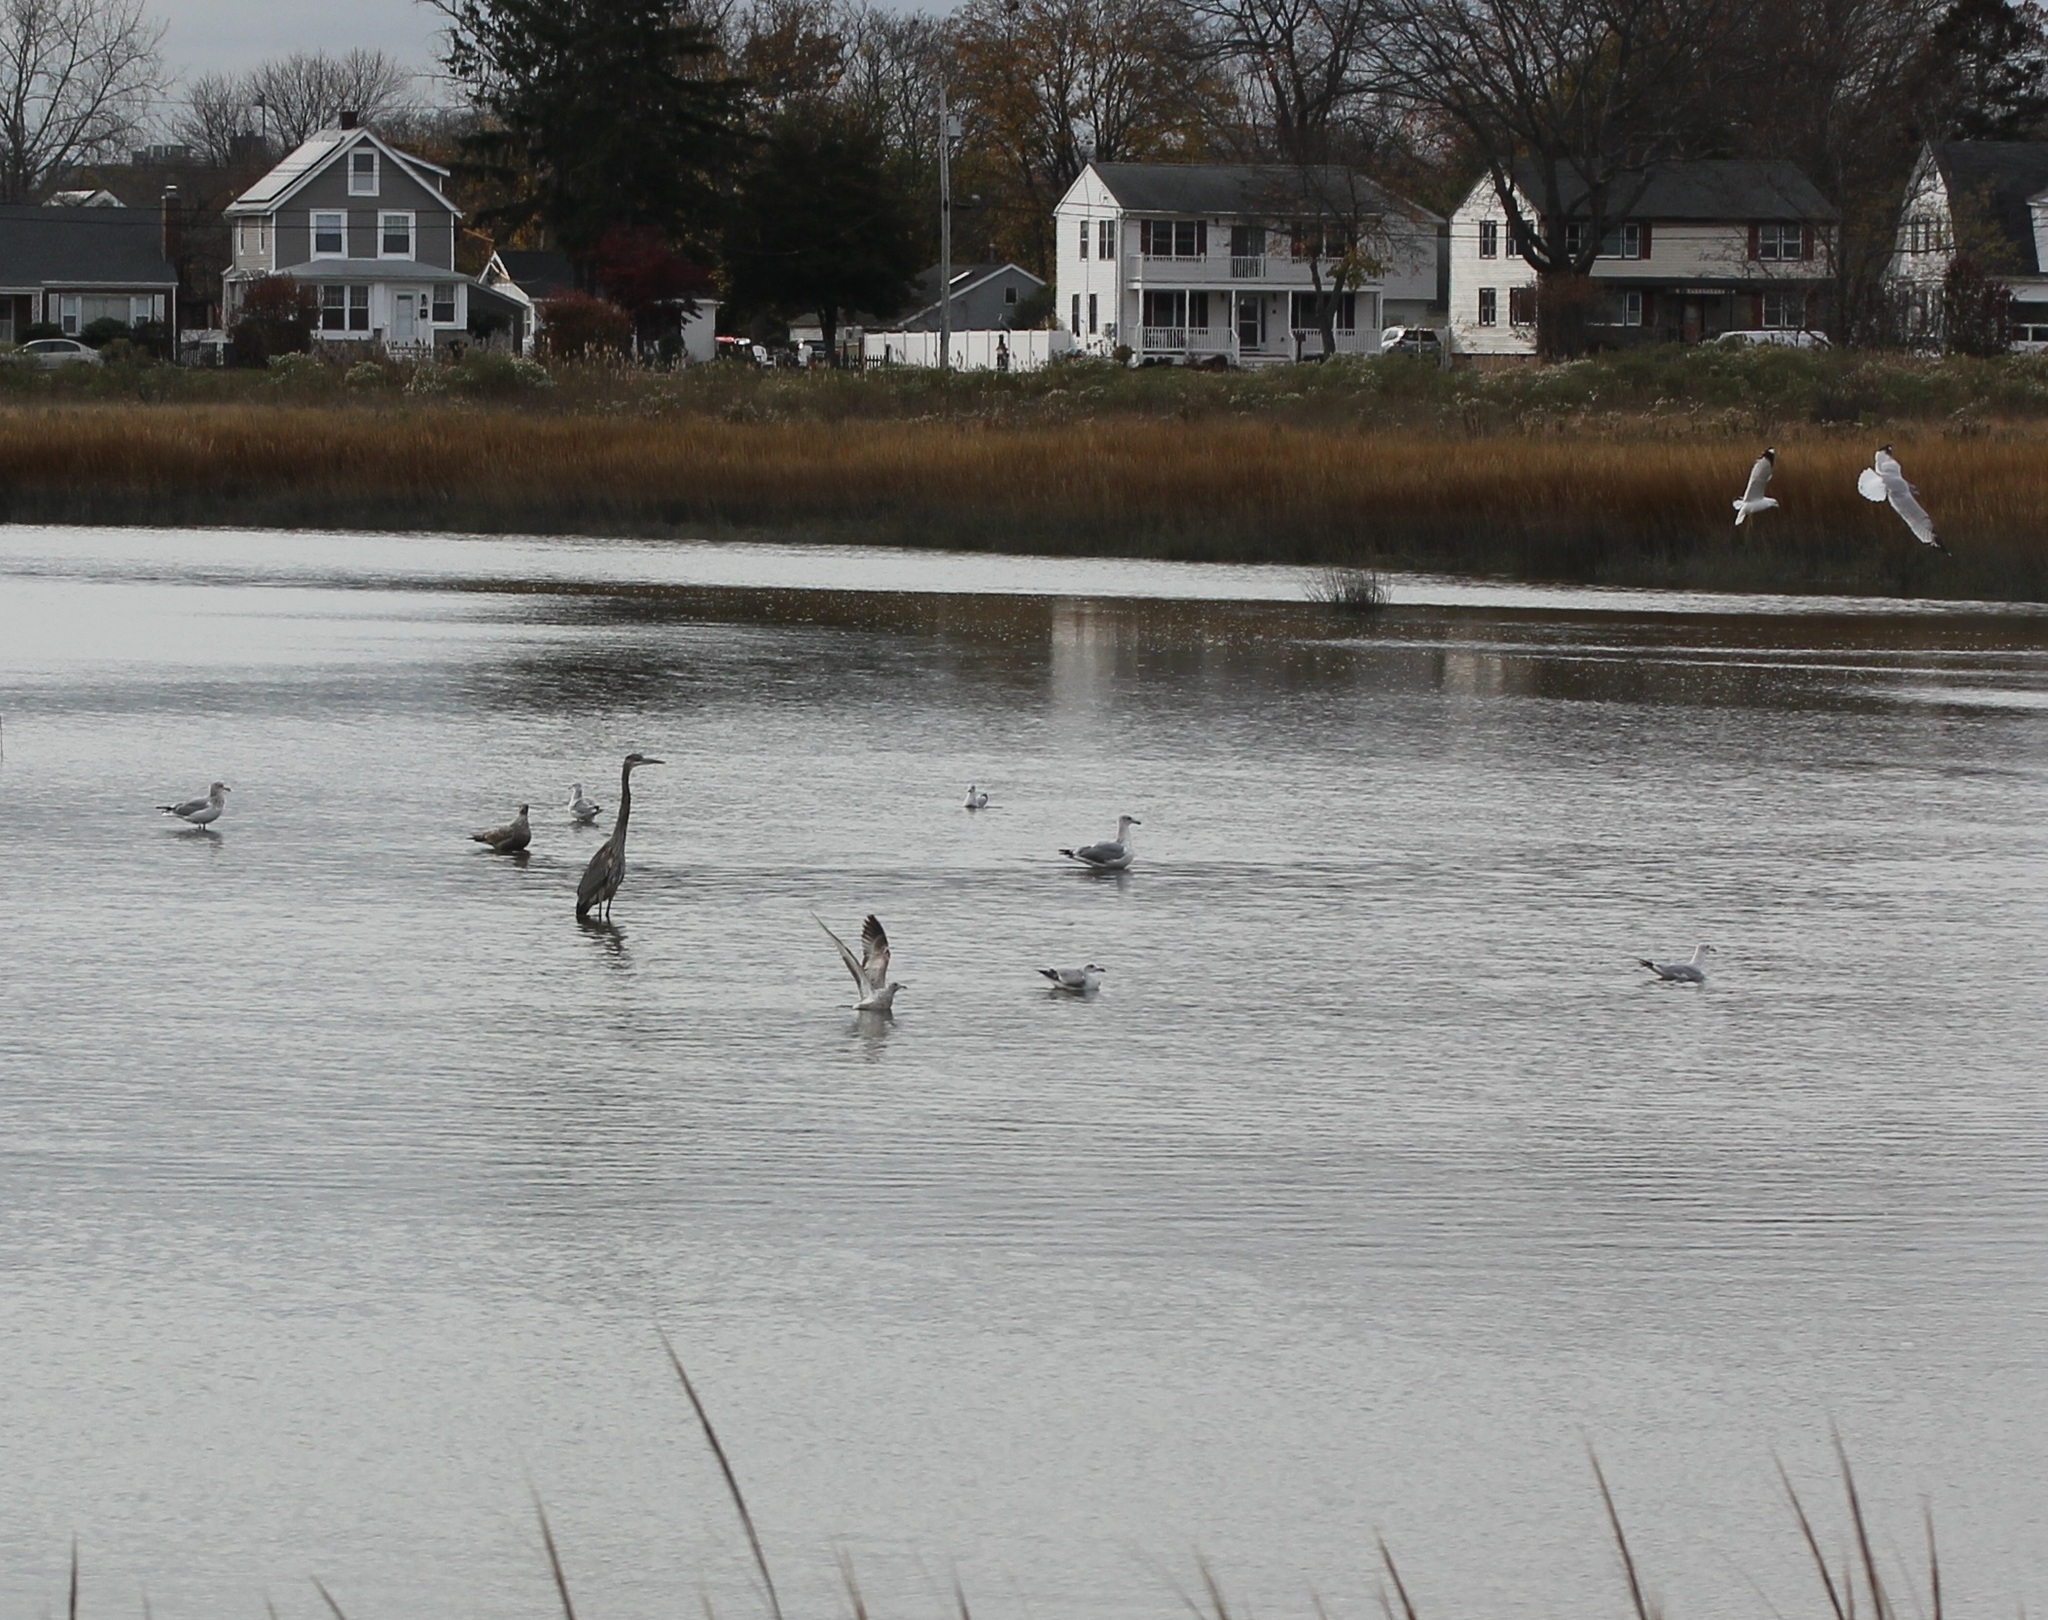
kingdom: Animalia
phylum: Chordata
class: Aves
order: Charadriiformes
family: Laridae
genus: Larus
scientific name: Larus argentatus
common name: Herring gull
